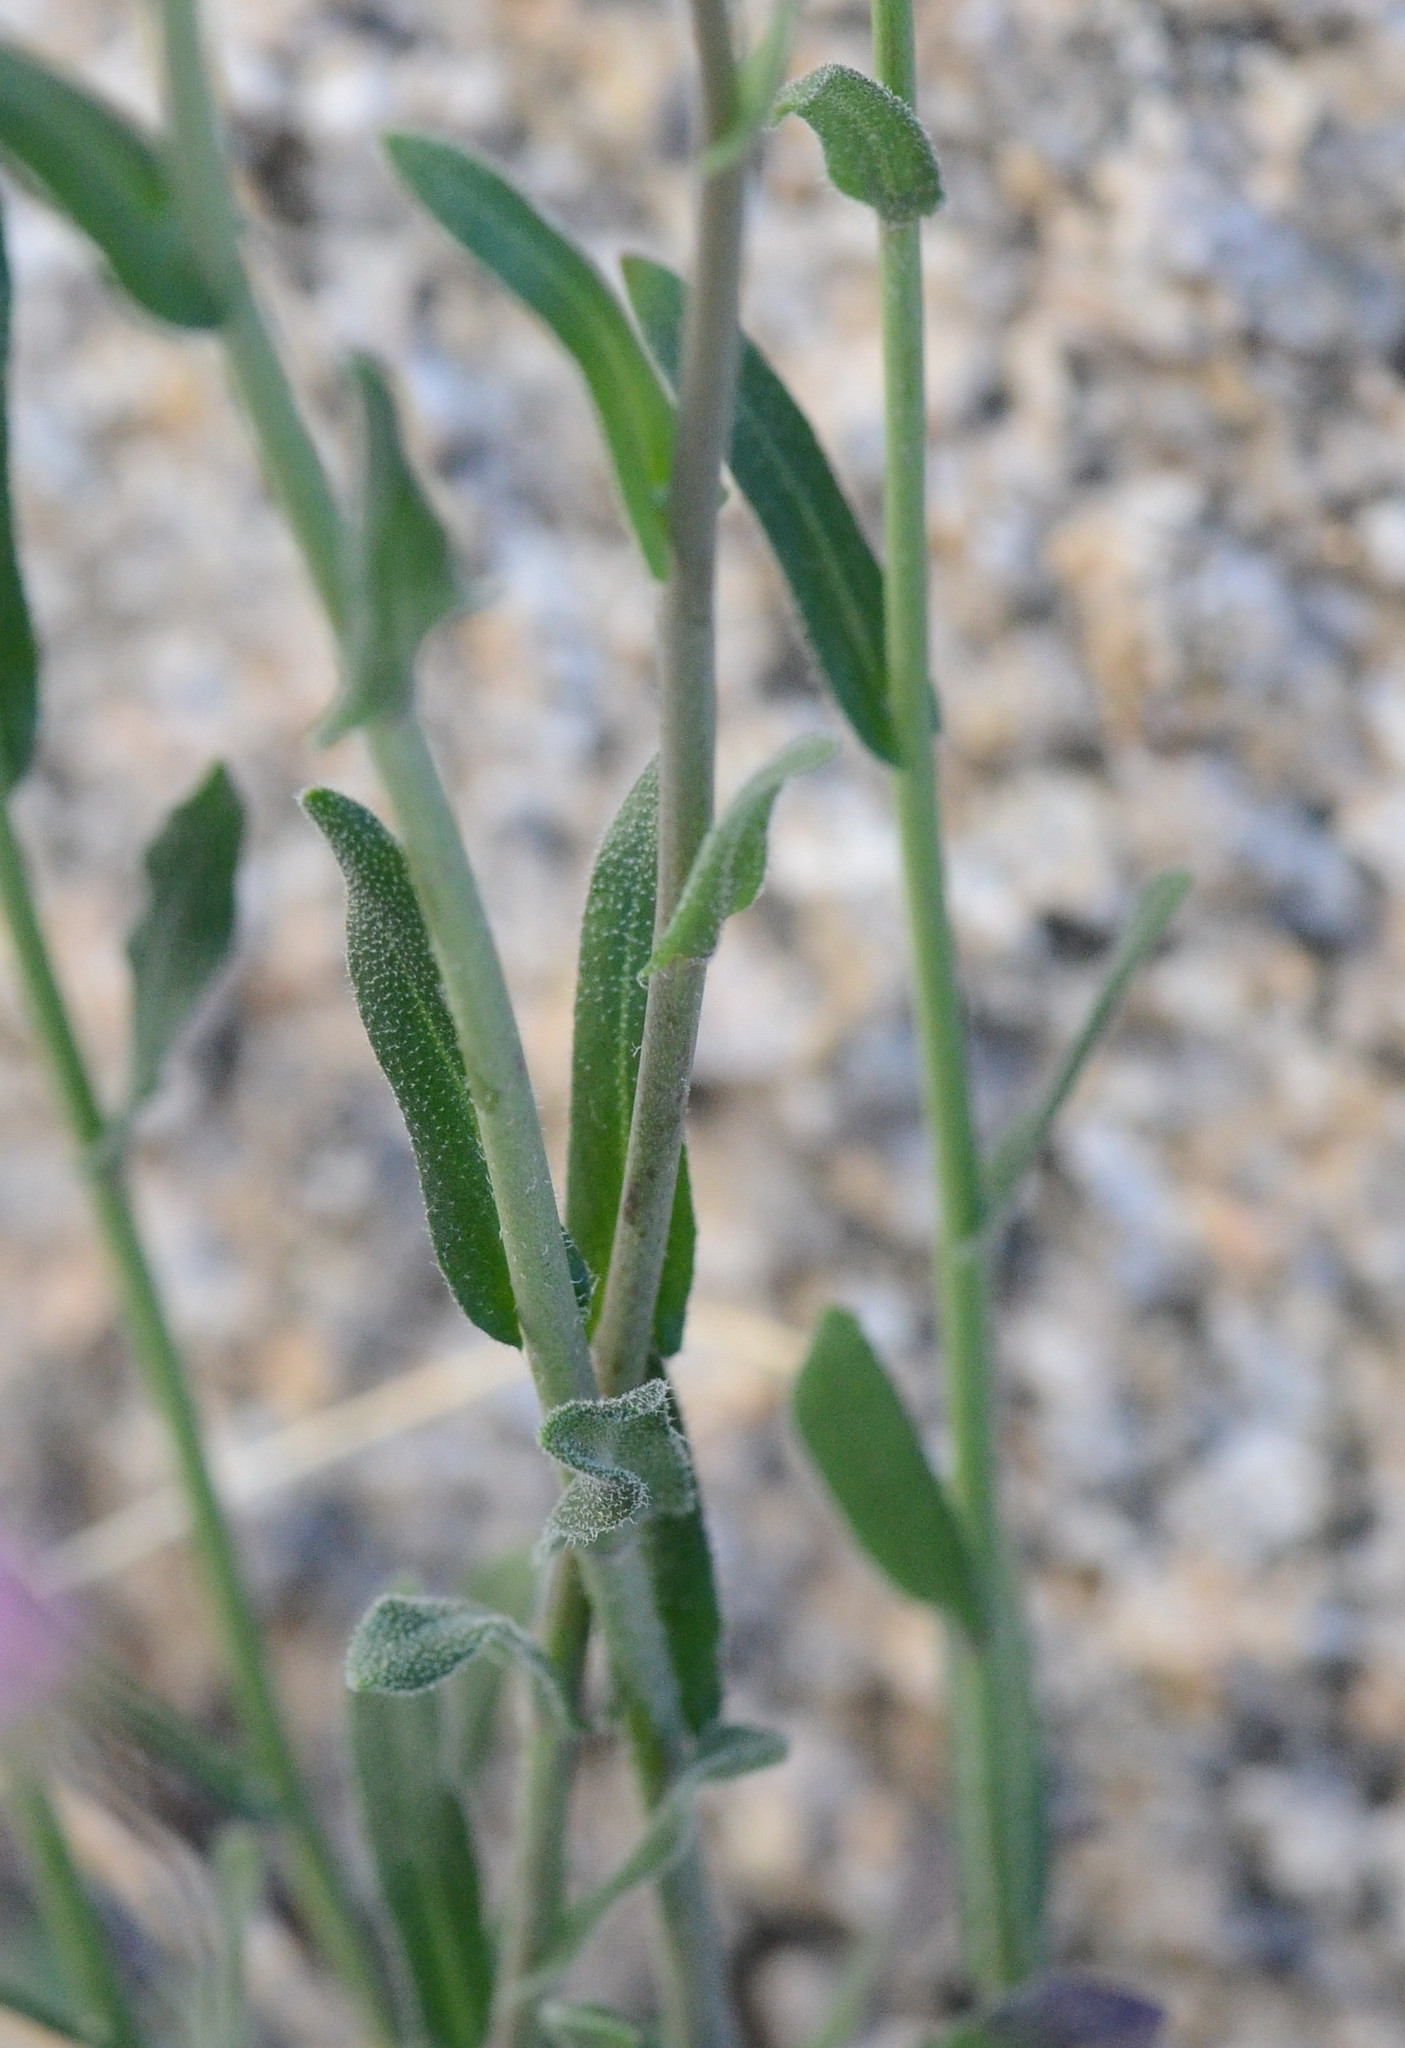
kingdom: Plantae
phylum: Tracheophyta
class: Magnoliopsida
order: Brassicales
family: Brassicaceae
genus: Boechera
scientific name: Boechera xylopoda
